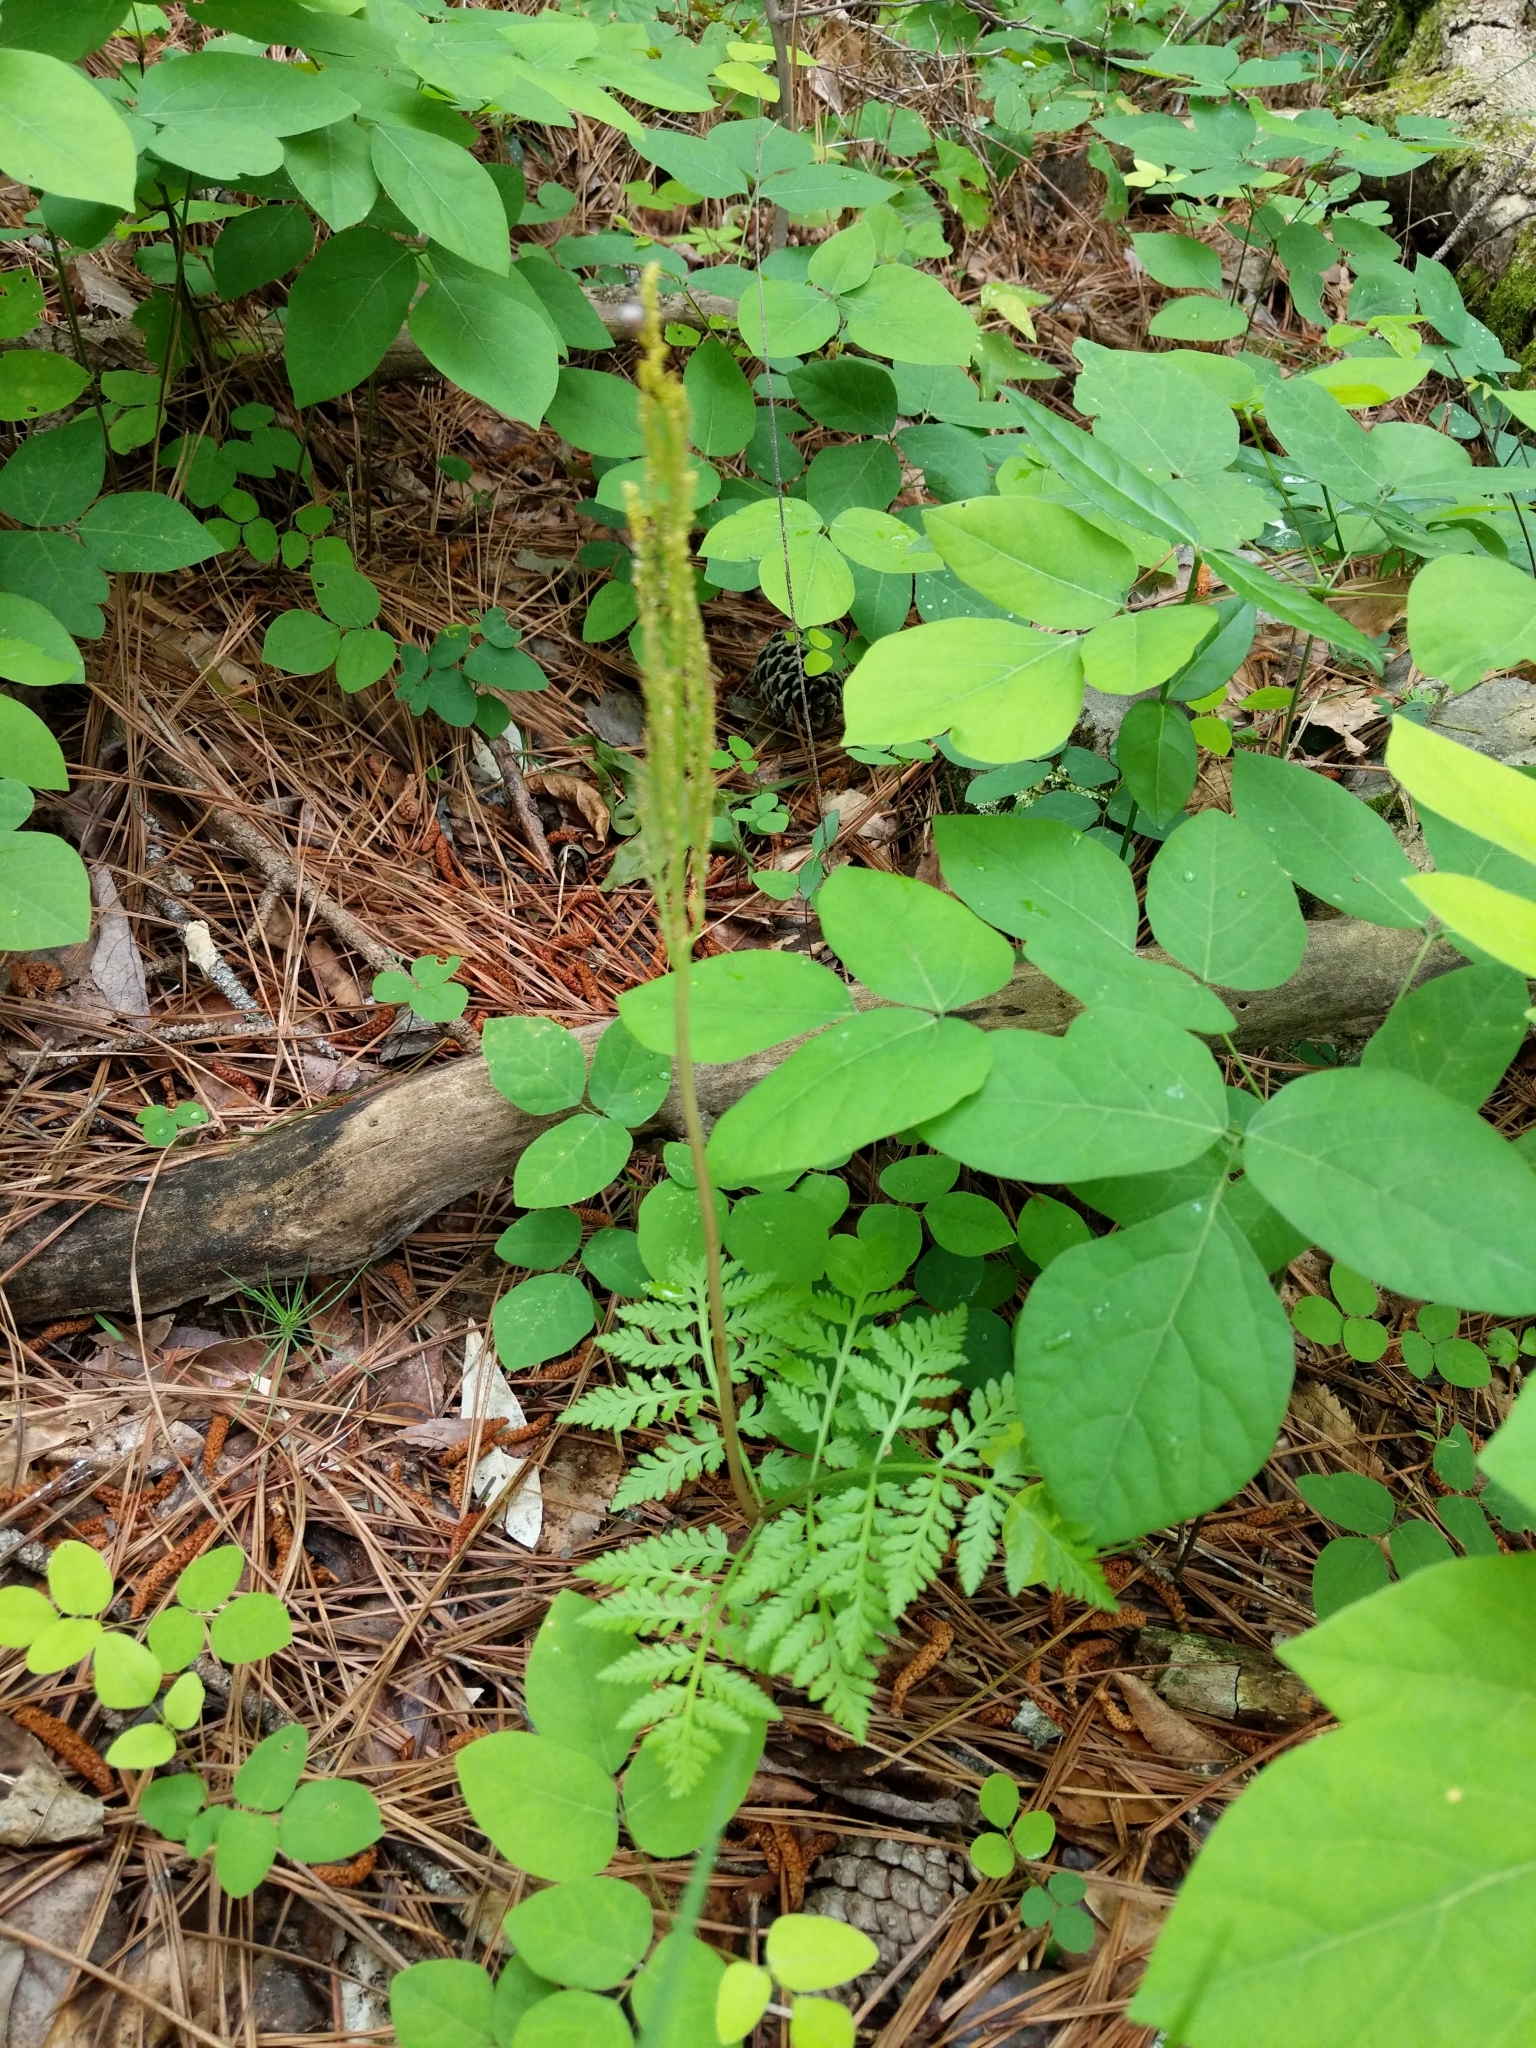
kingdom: Plantae
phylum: Tracheophyta
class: Polypodiopsida
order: Ophioglossales
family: Ophioglossaceae
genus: Botrypus
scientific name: Botrypus virginianus
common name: Common grapefern
